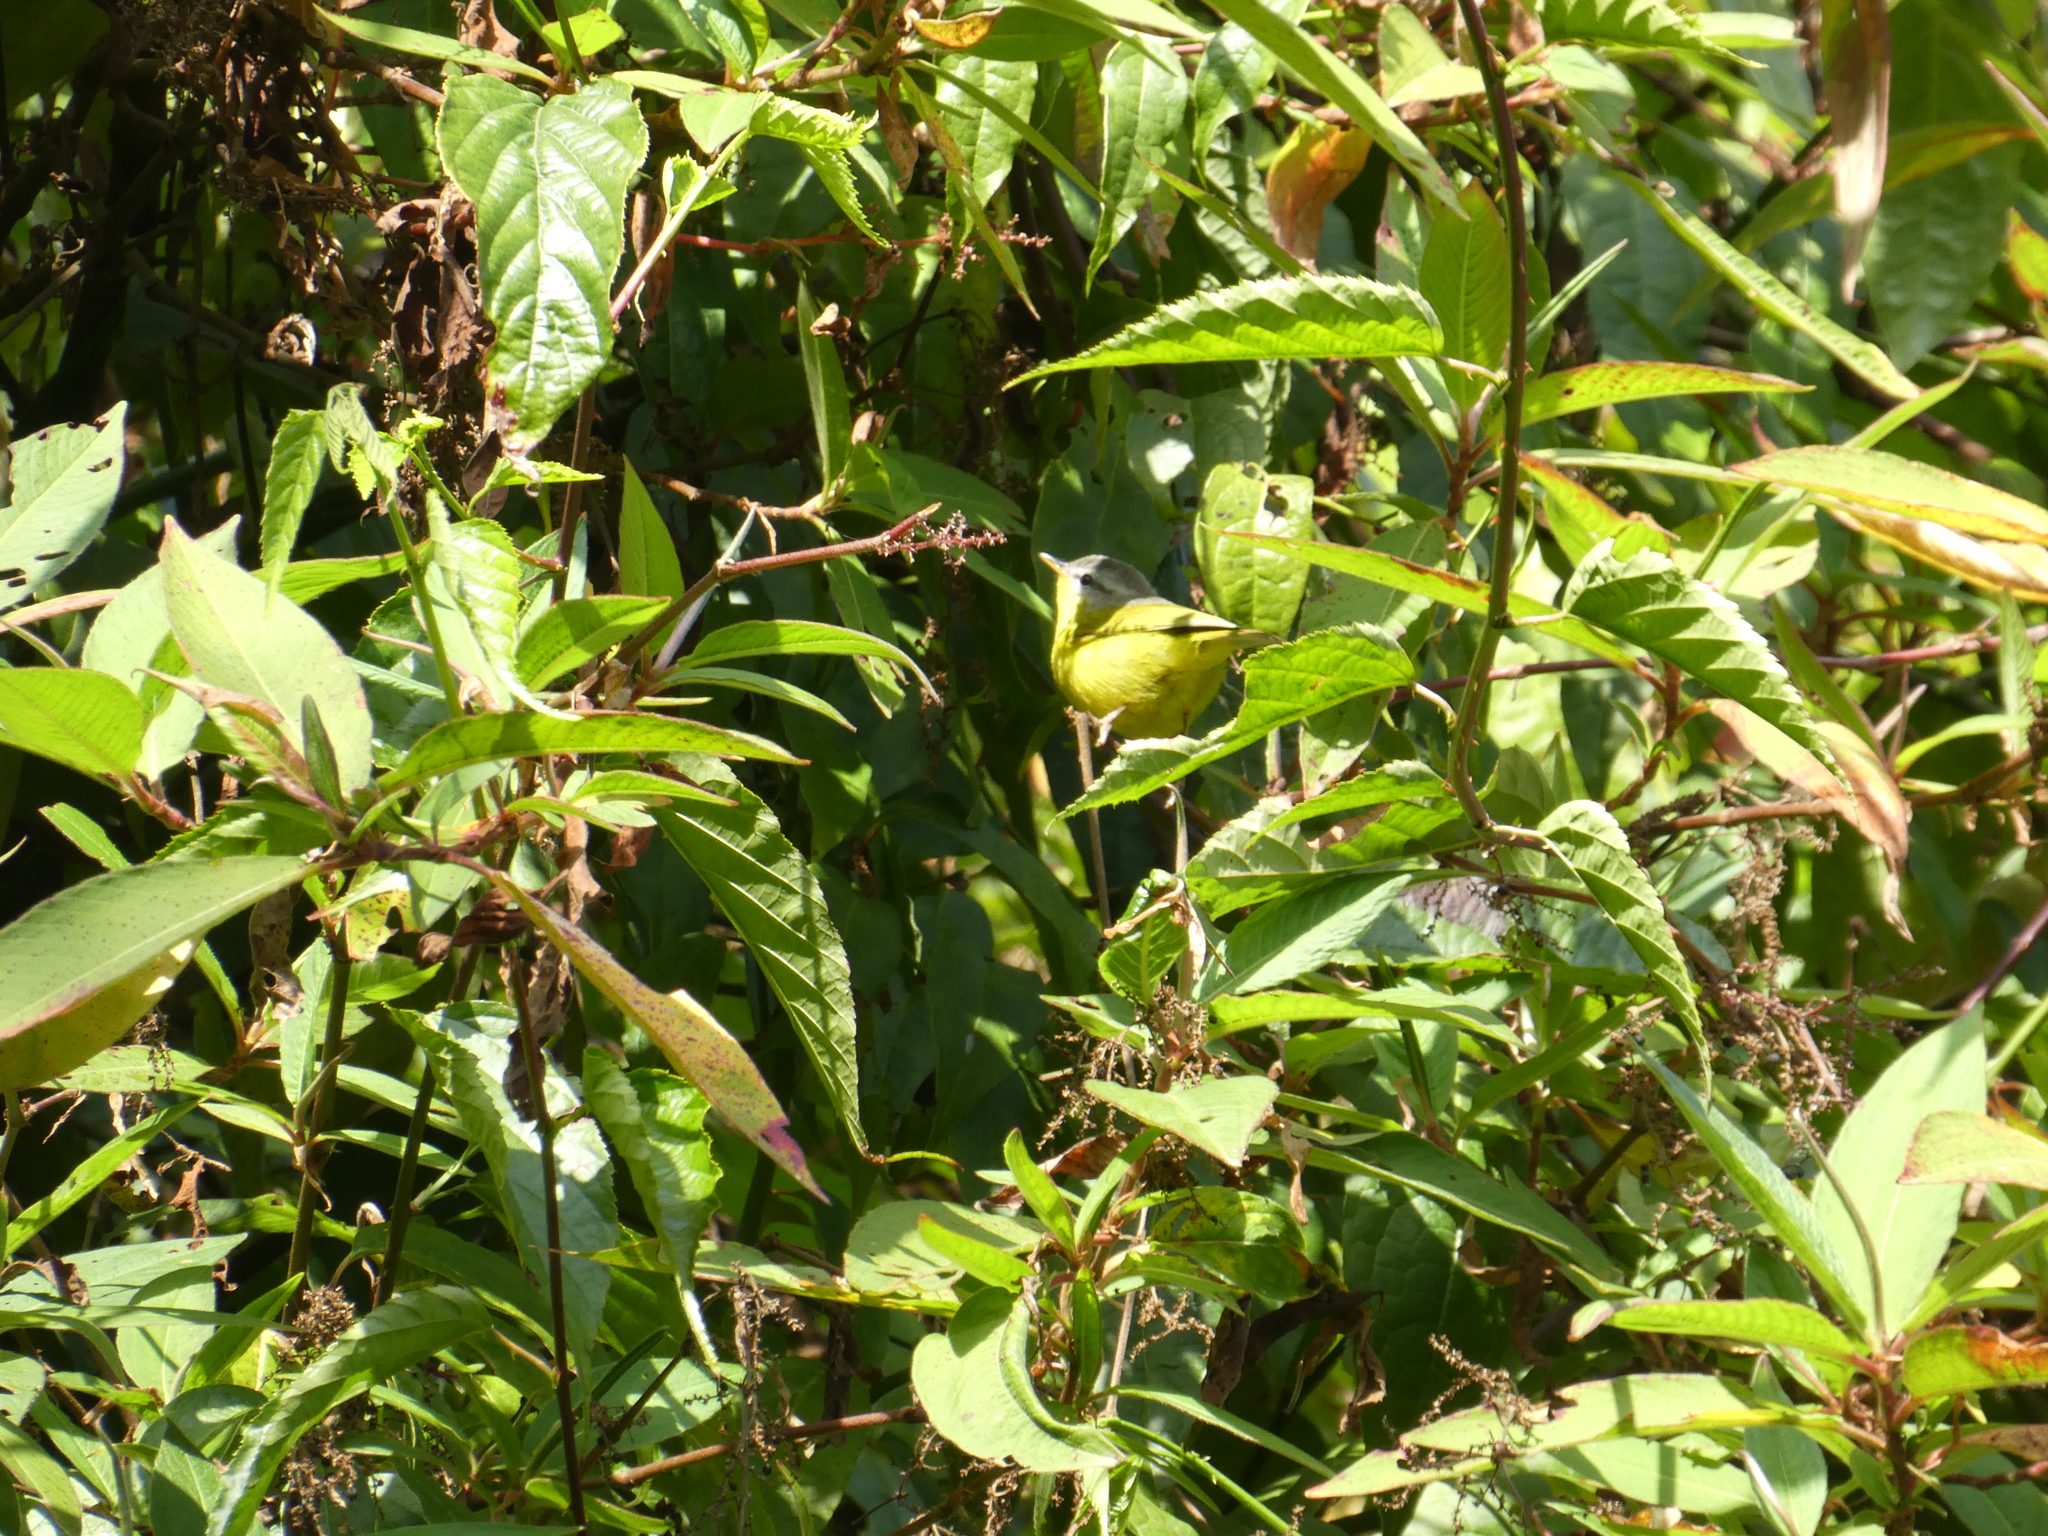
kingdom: Animalia
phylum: Chordata
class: Aves
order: Passeriformes
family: Phylloscopidae
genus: Phylloscopus
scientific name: Phylloscopus xanthoschistos
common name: Grey-hooded warbler
